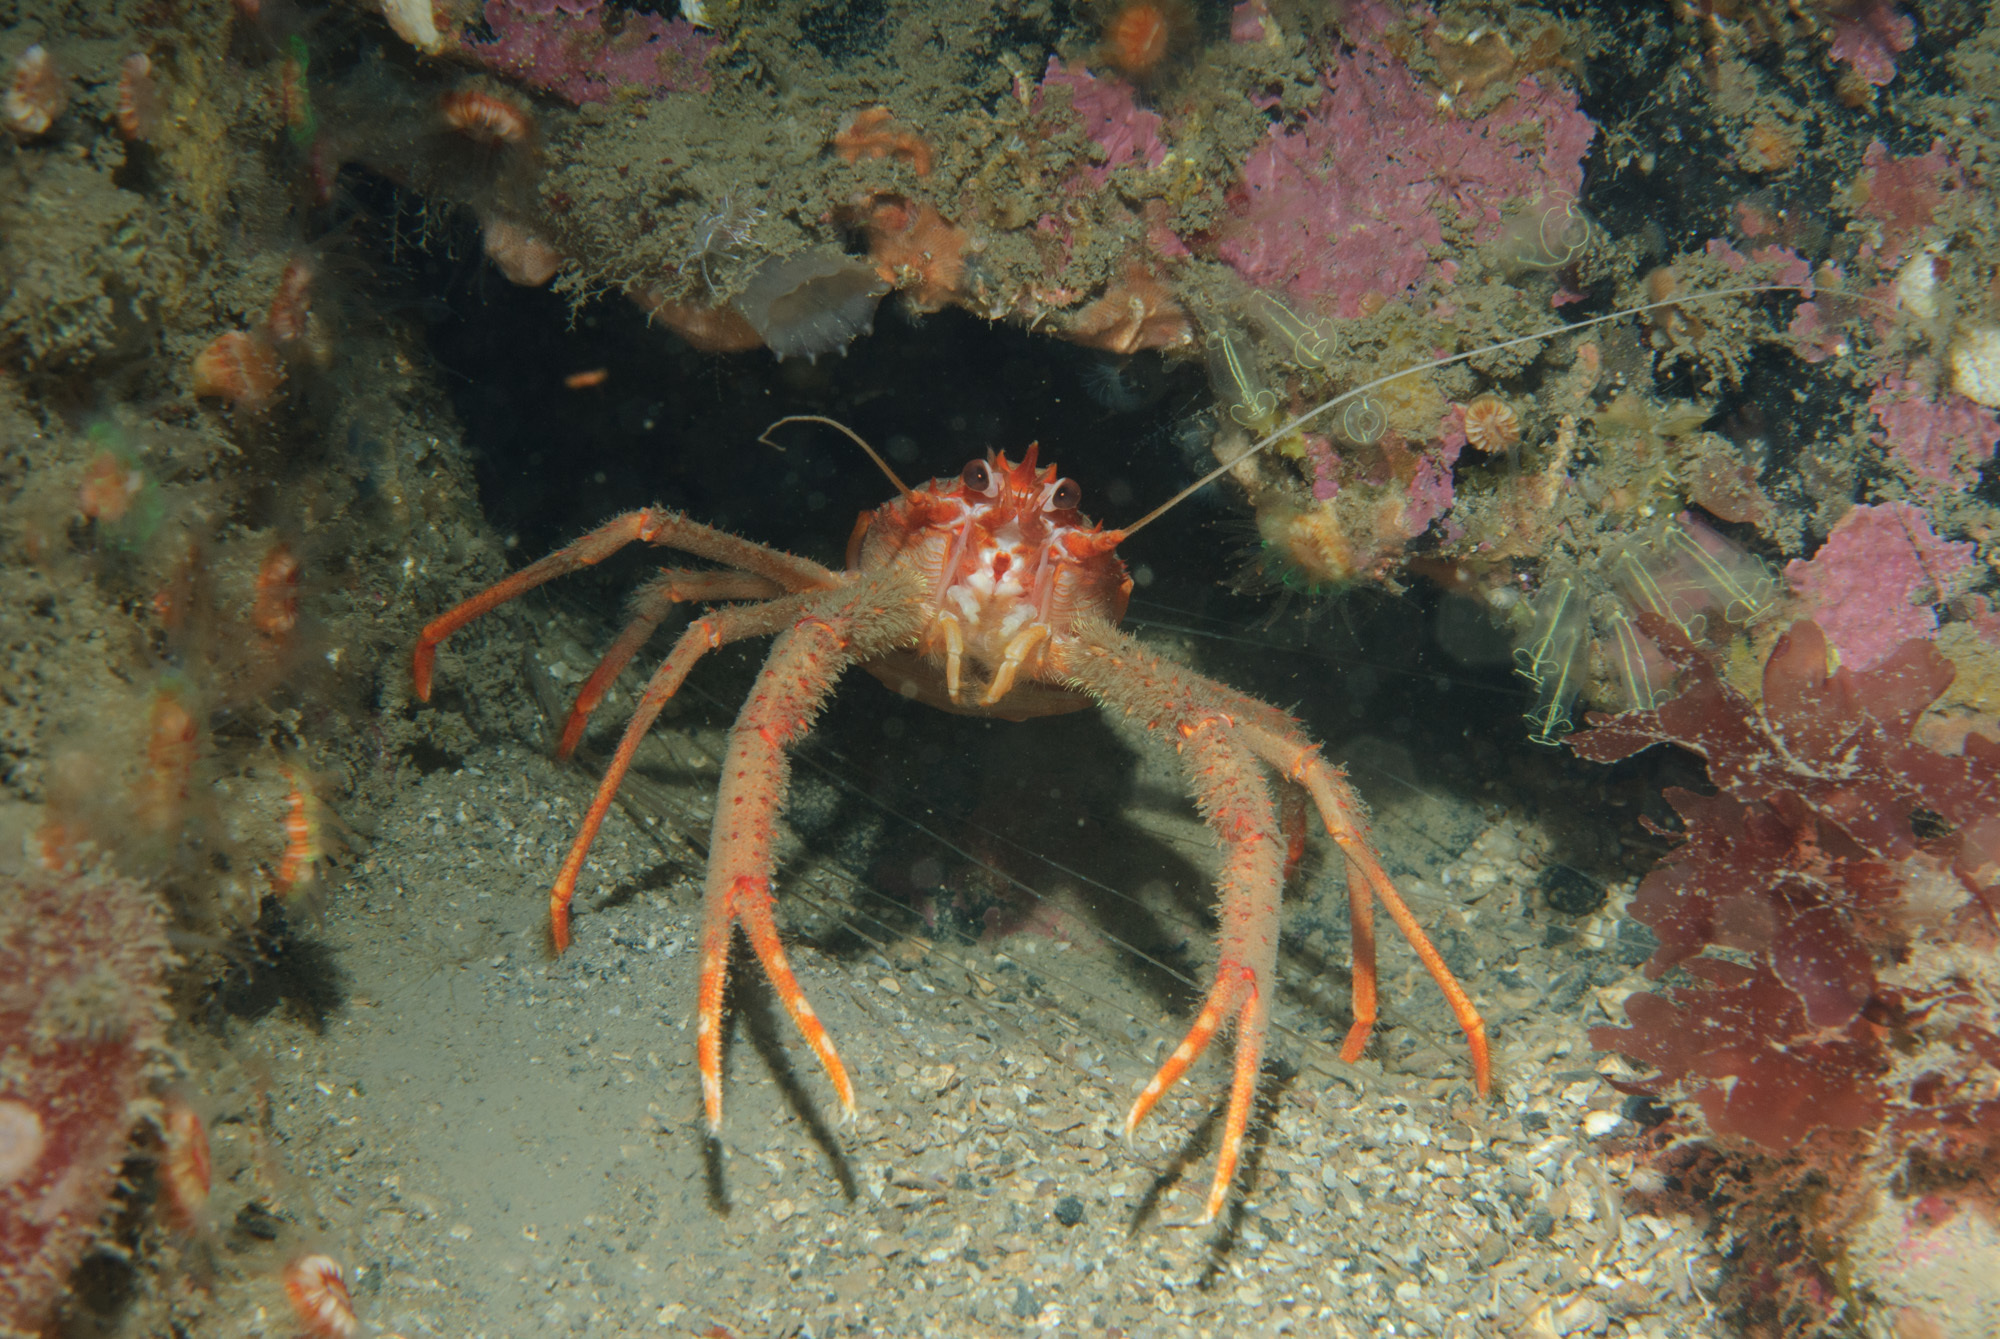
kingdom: Animalia
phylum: Arthropoda
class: Malacostraca
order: Decapoda
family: Munididae
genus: Munida
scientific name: Munida rugosa
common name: Rugose squat lobster
